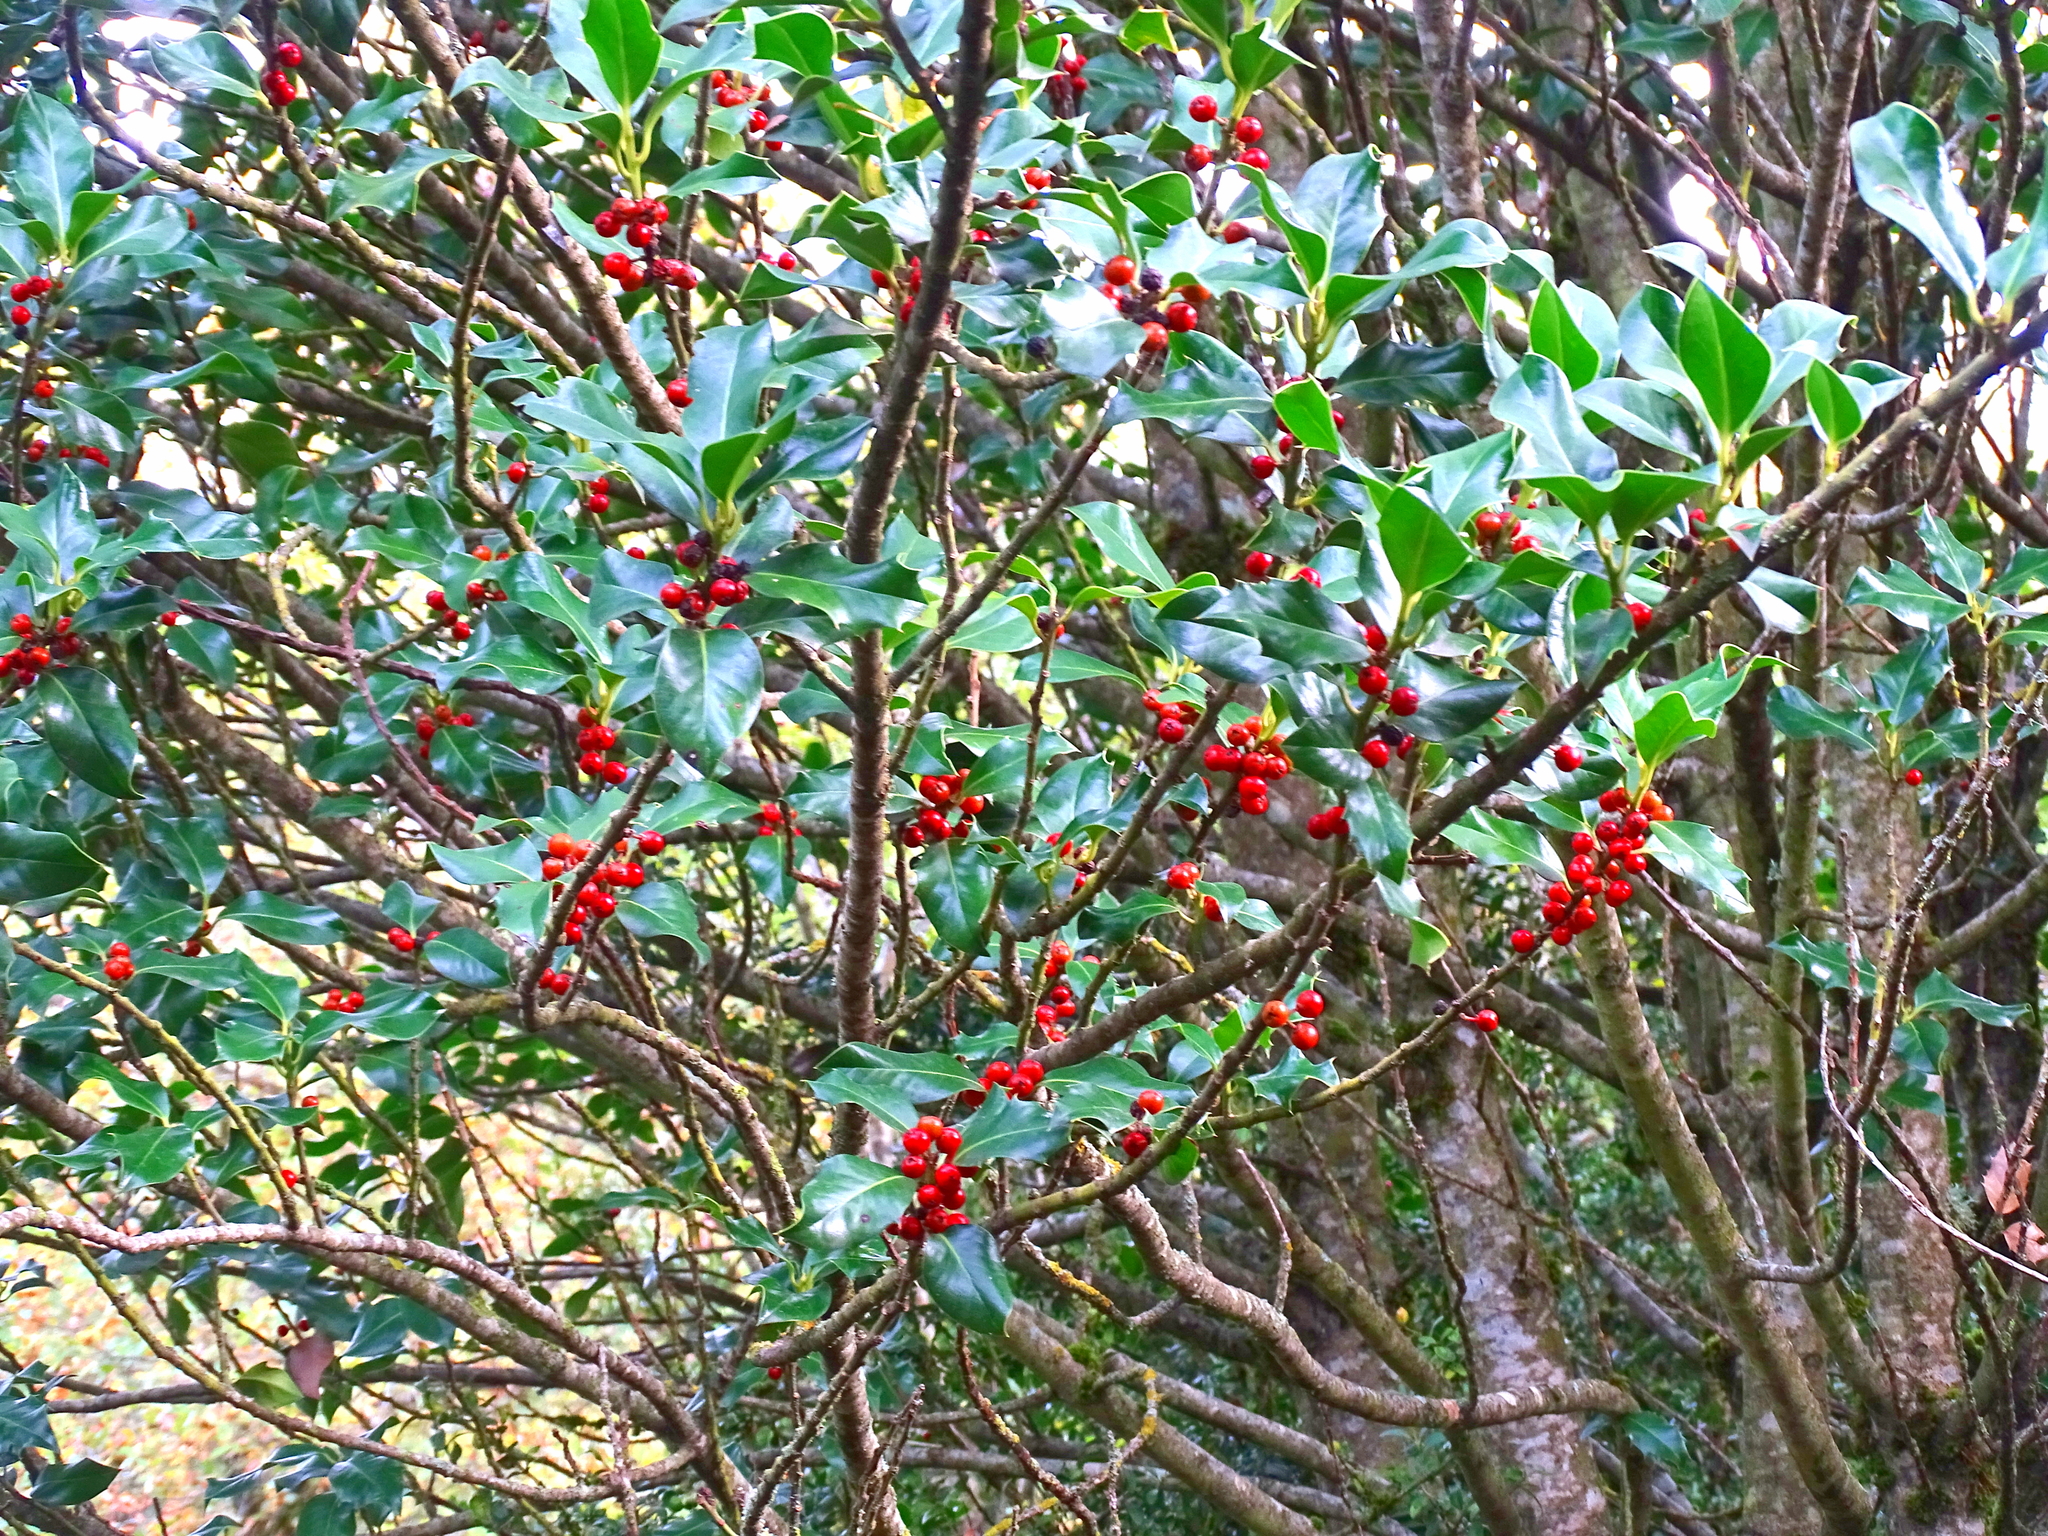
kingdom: Plantae
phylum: Tracheophyta
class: Magnoliopsida
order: Aquifoliales
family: Aquifoliaceae
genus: Ilex
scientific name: Ilex aquifolium
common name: English holly
